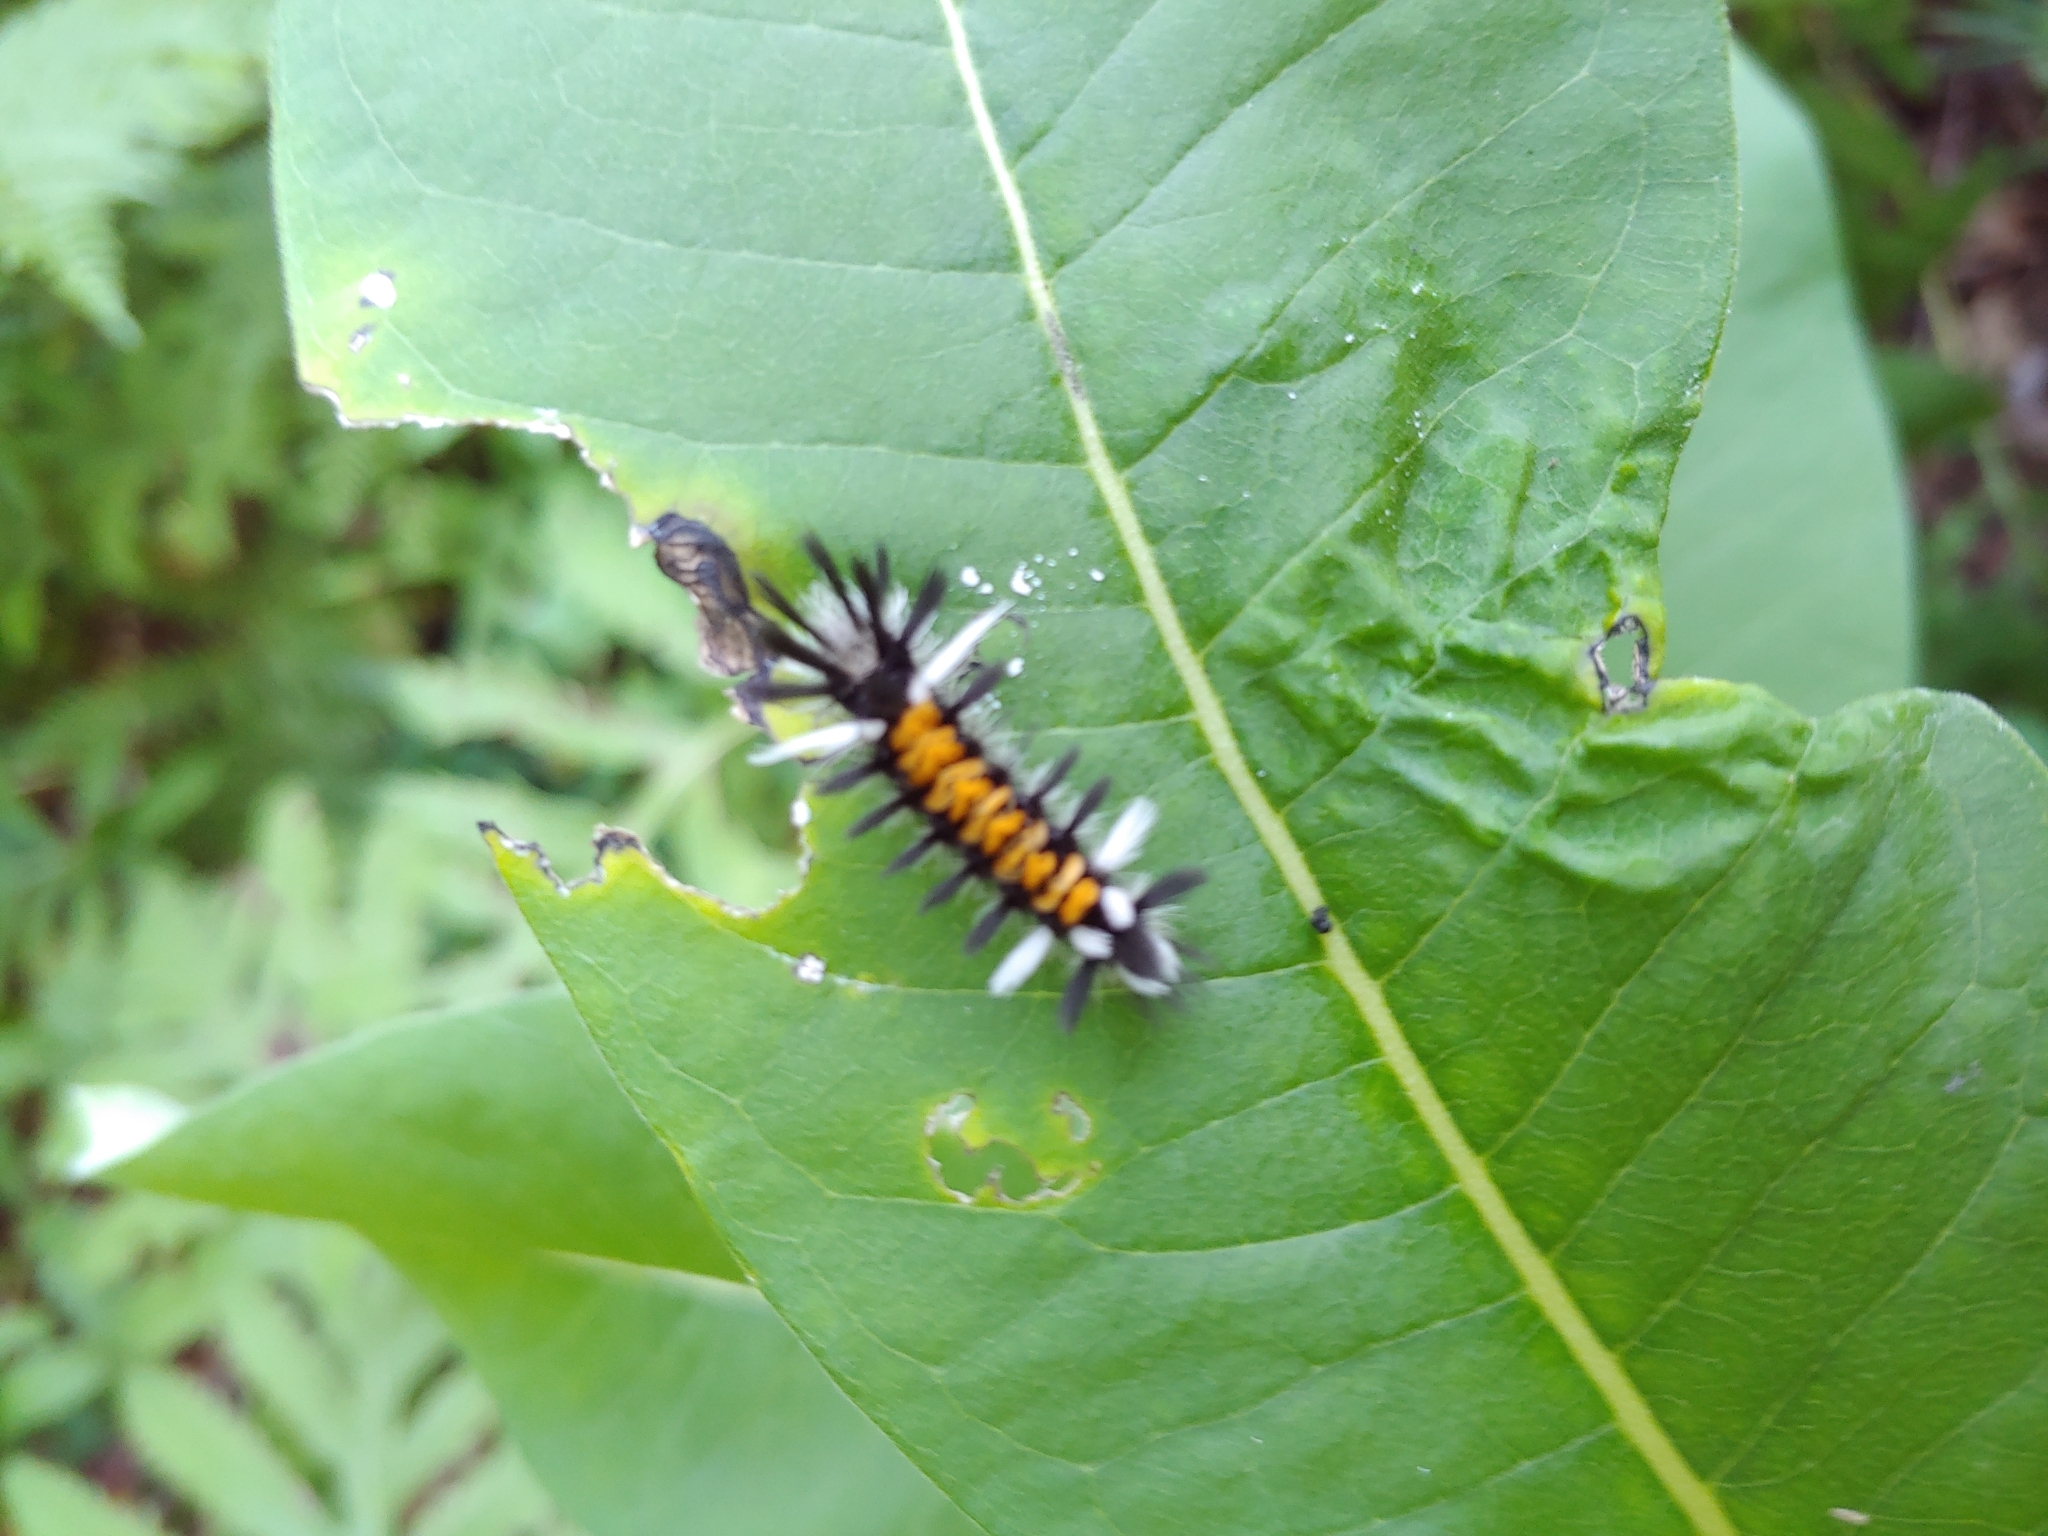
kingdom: Animalia
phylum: Arthropoda
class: Insecta
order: Lepidoptera
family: Erebidae
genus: Euchaetes
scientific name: Euchaetes egle
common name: Milkweed tussock moth
